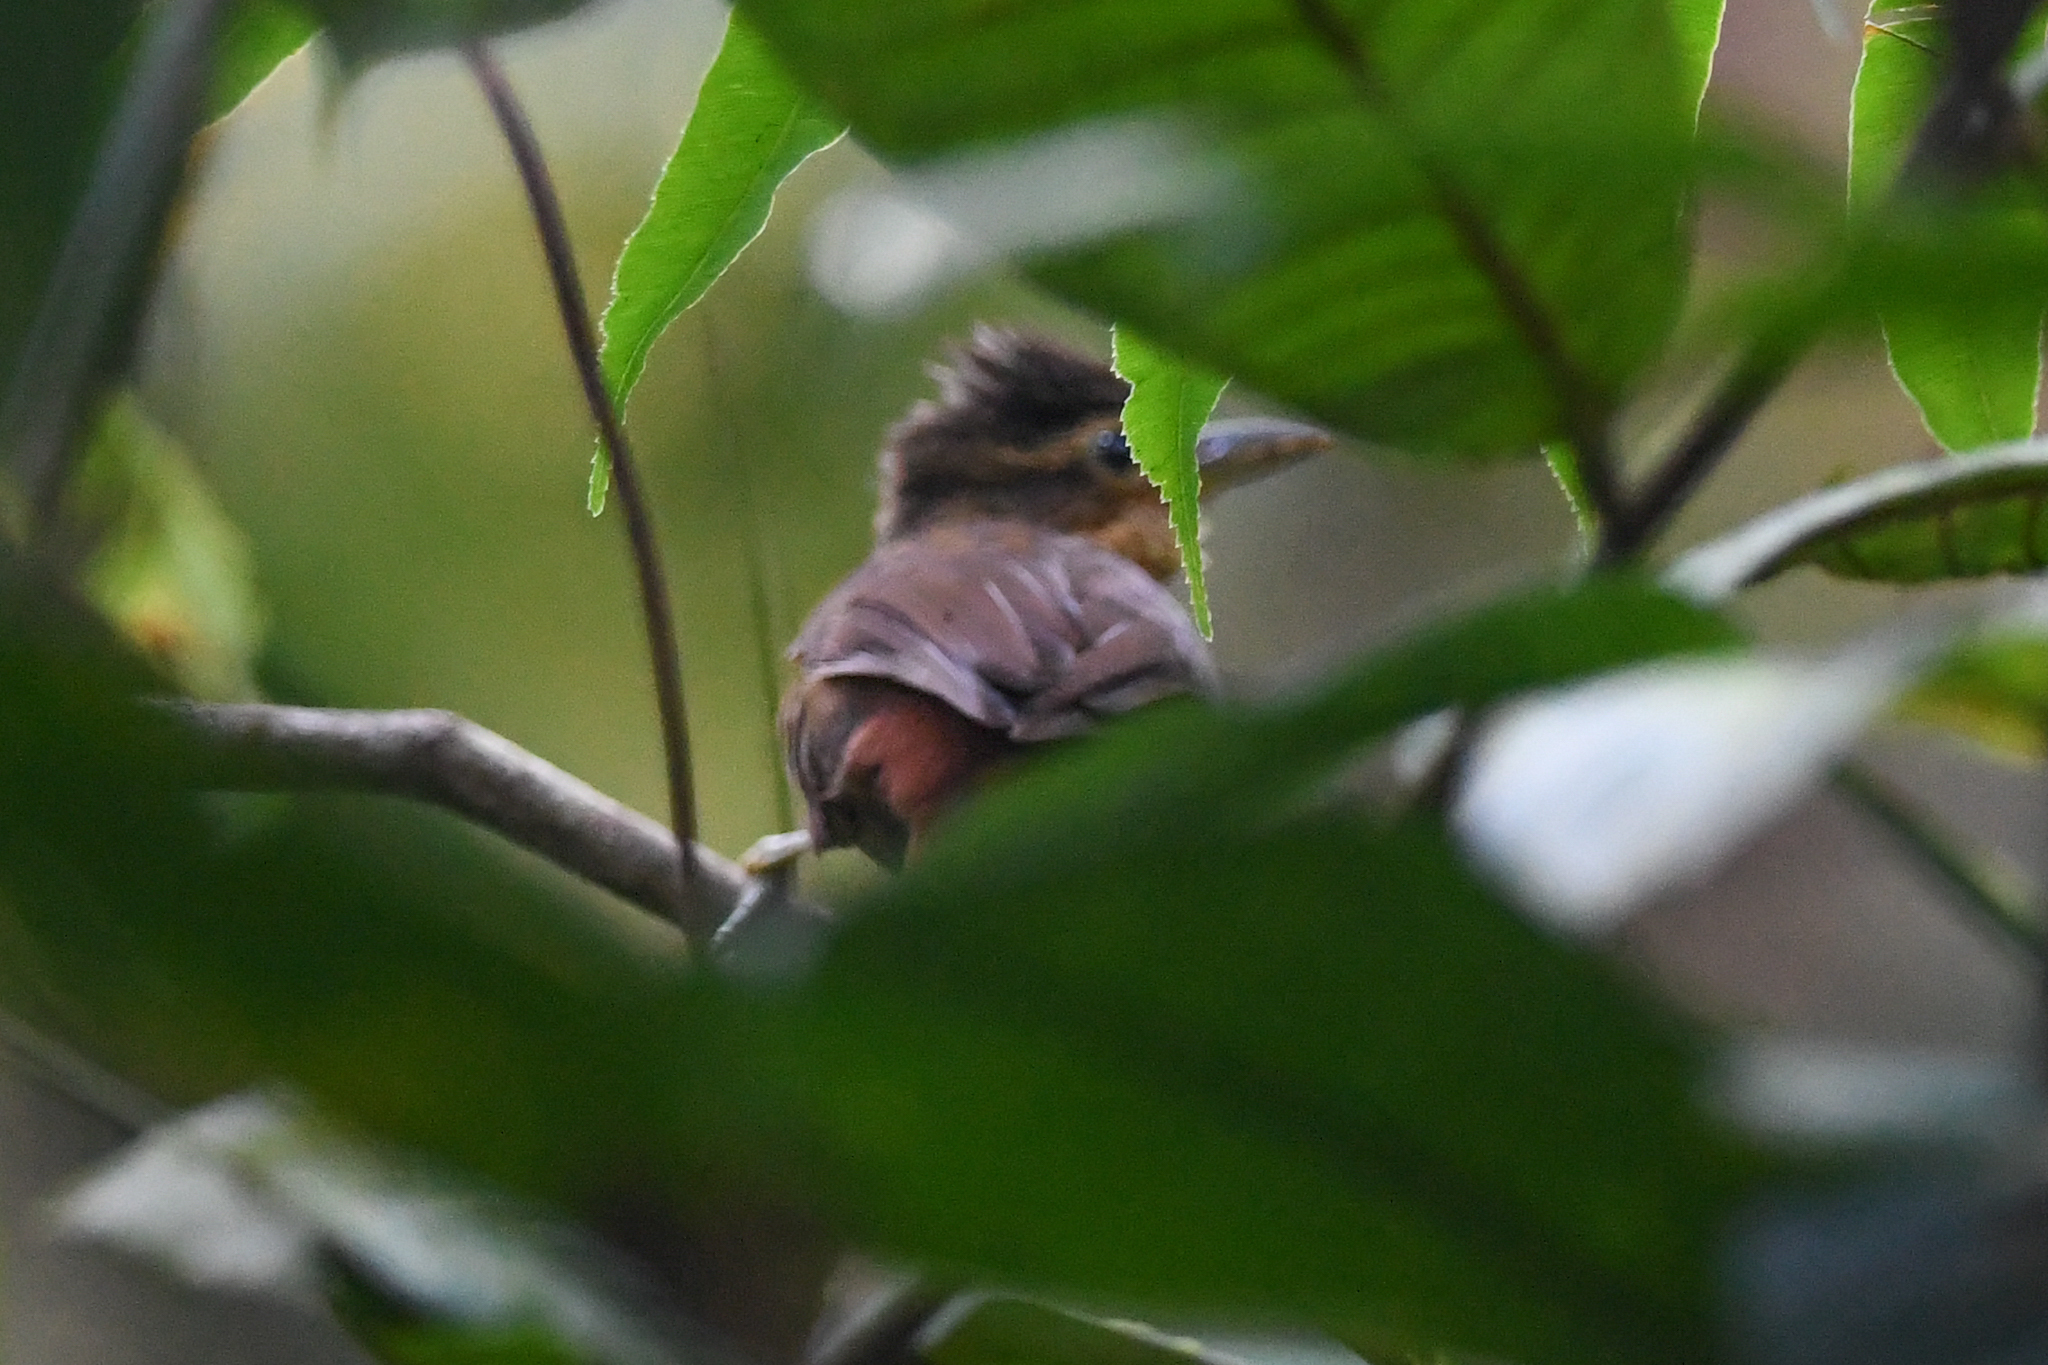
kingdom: Animalia
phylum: Chordata
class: Aves
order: Passeriformes
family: Furnariidae
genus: Automolus
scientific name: Automolus ochrolaemus
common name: Buff-throated foliage-gleaner
